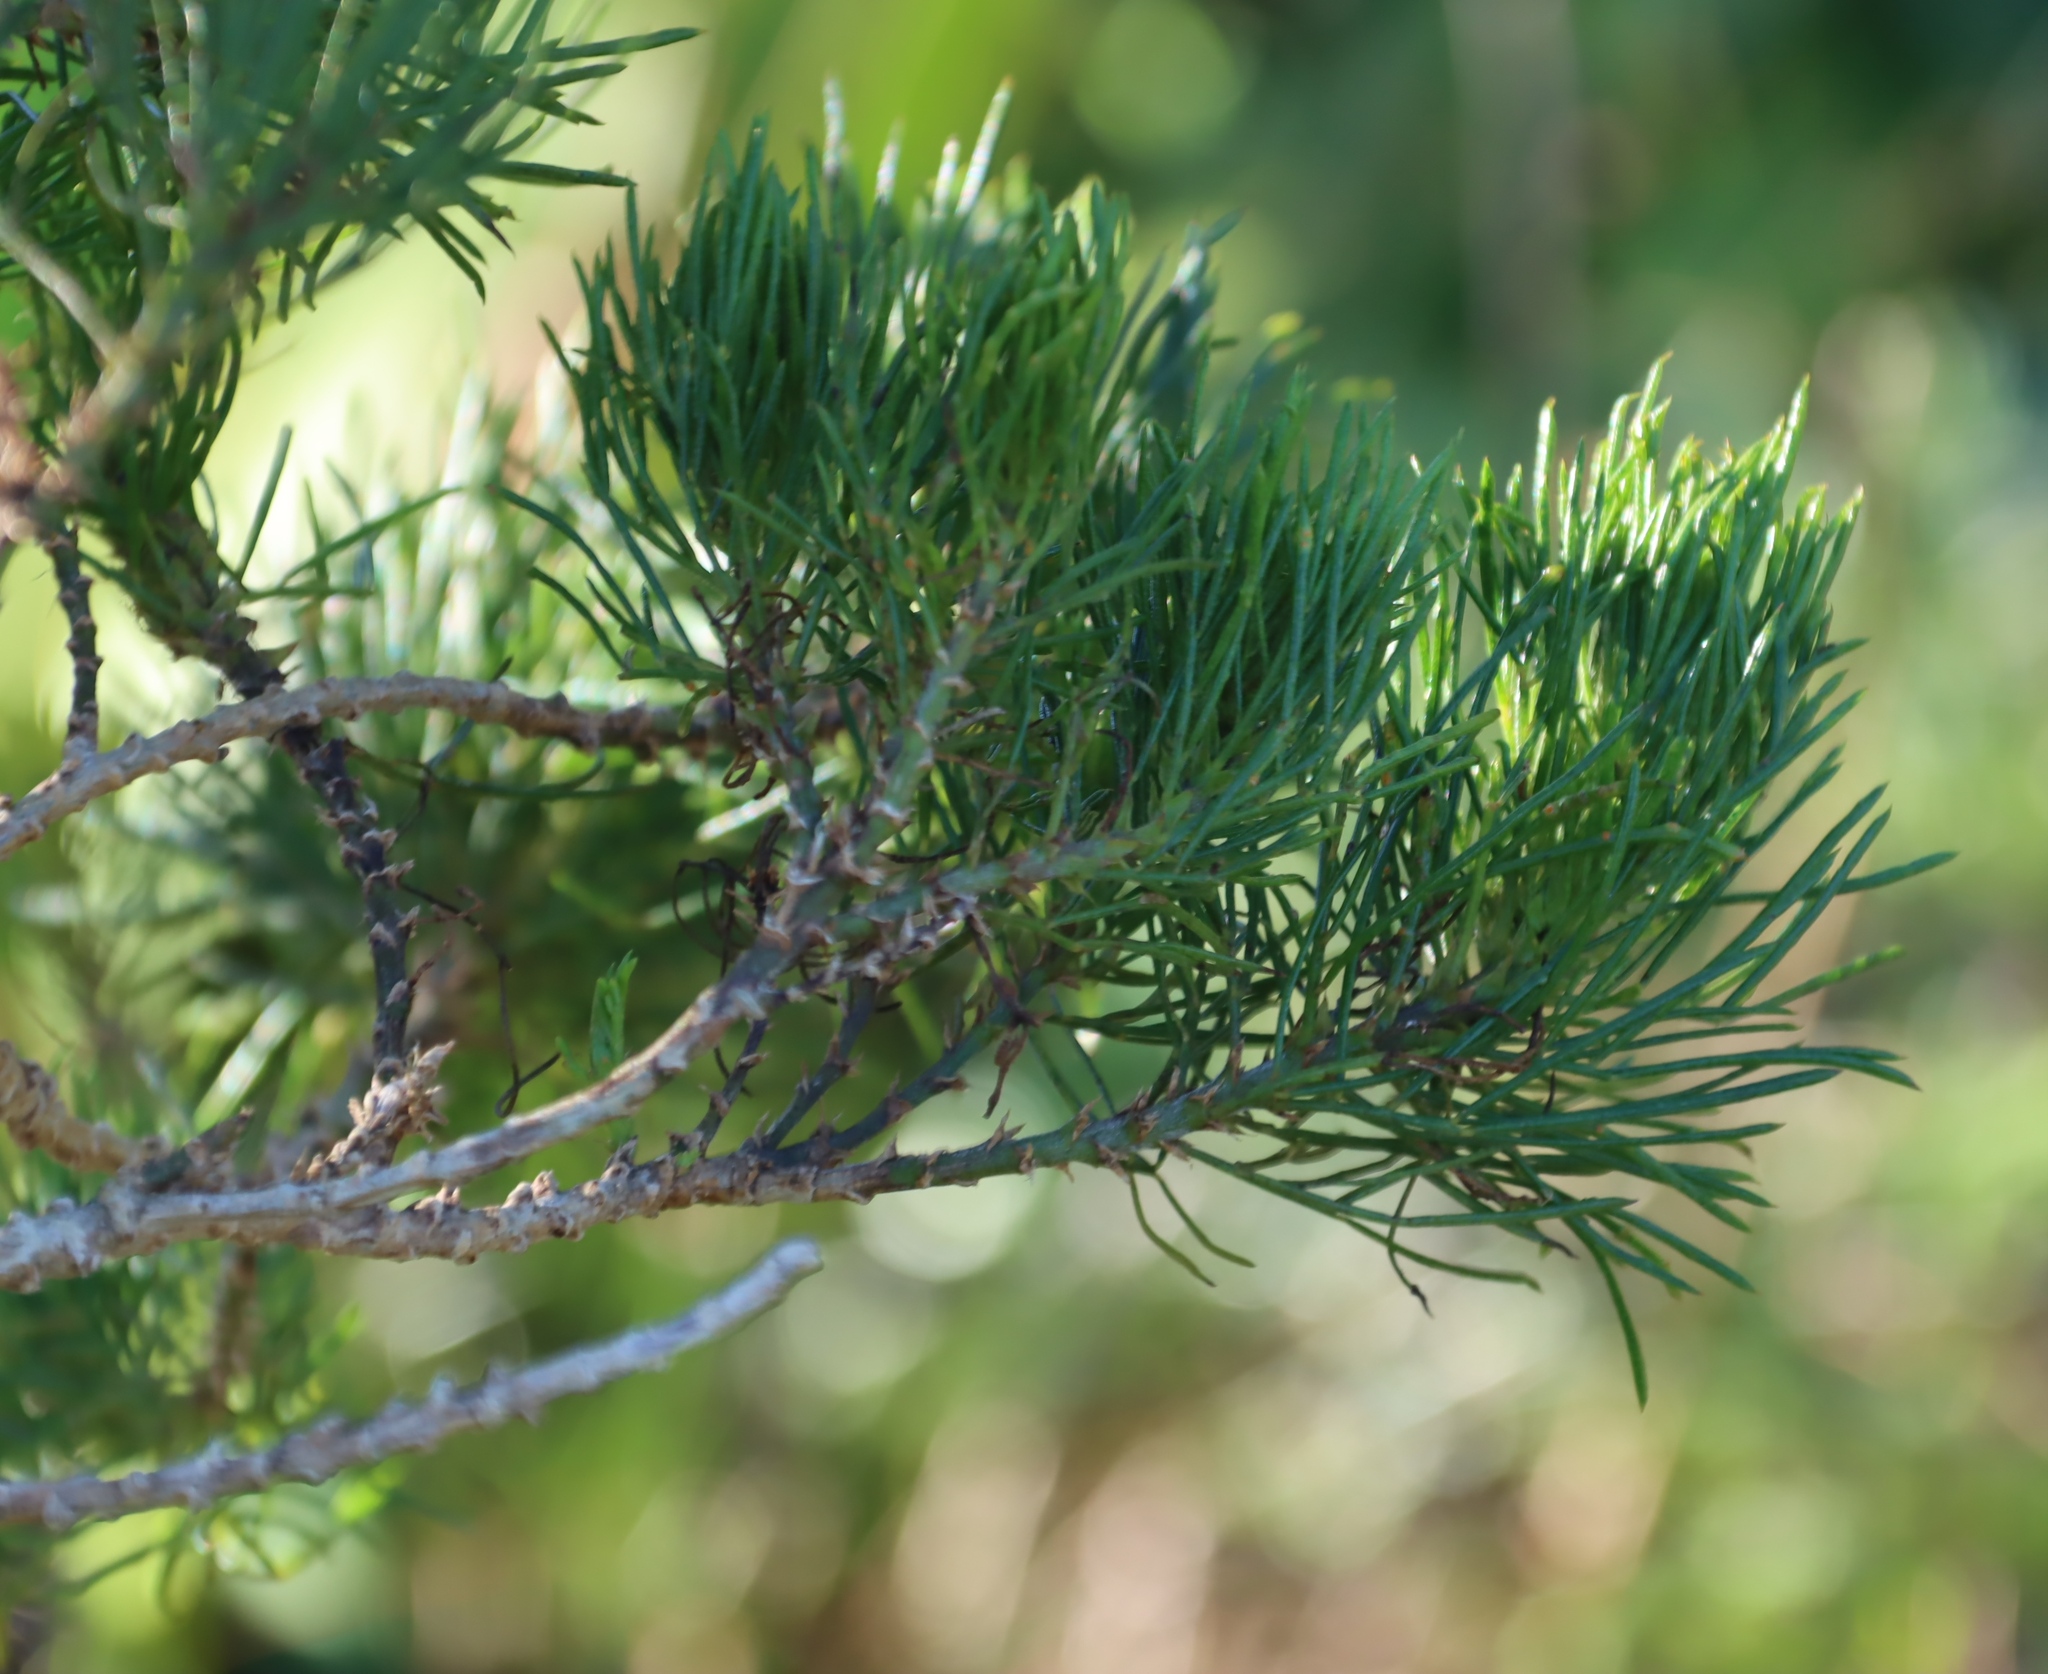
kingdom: Plantae
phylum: Tracheophyta
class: Magnoliopsida
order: Fabales
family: Fabaceae
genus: Psoralea
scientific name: Psoralea pinnata
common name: African scurfpea
